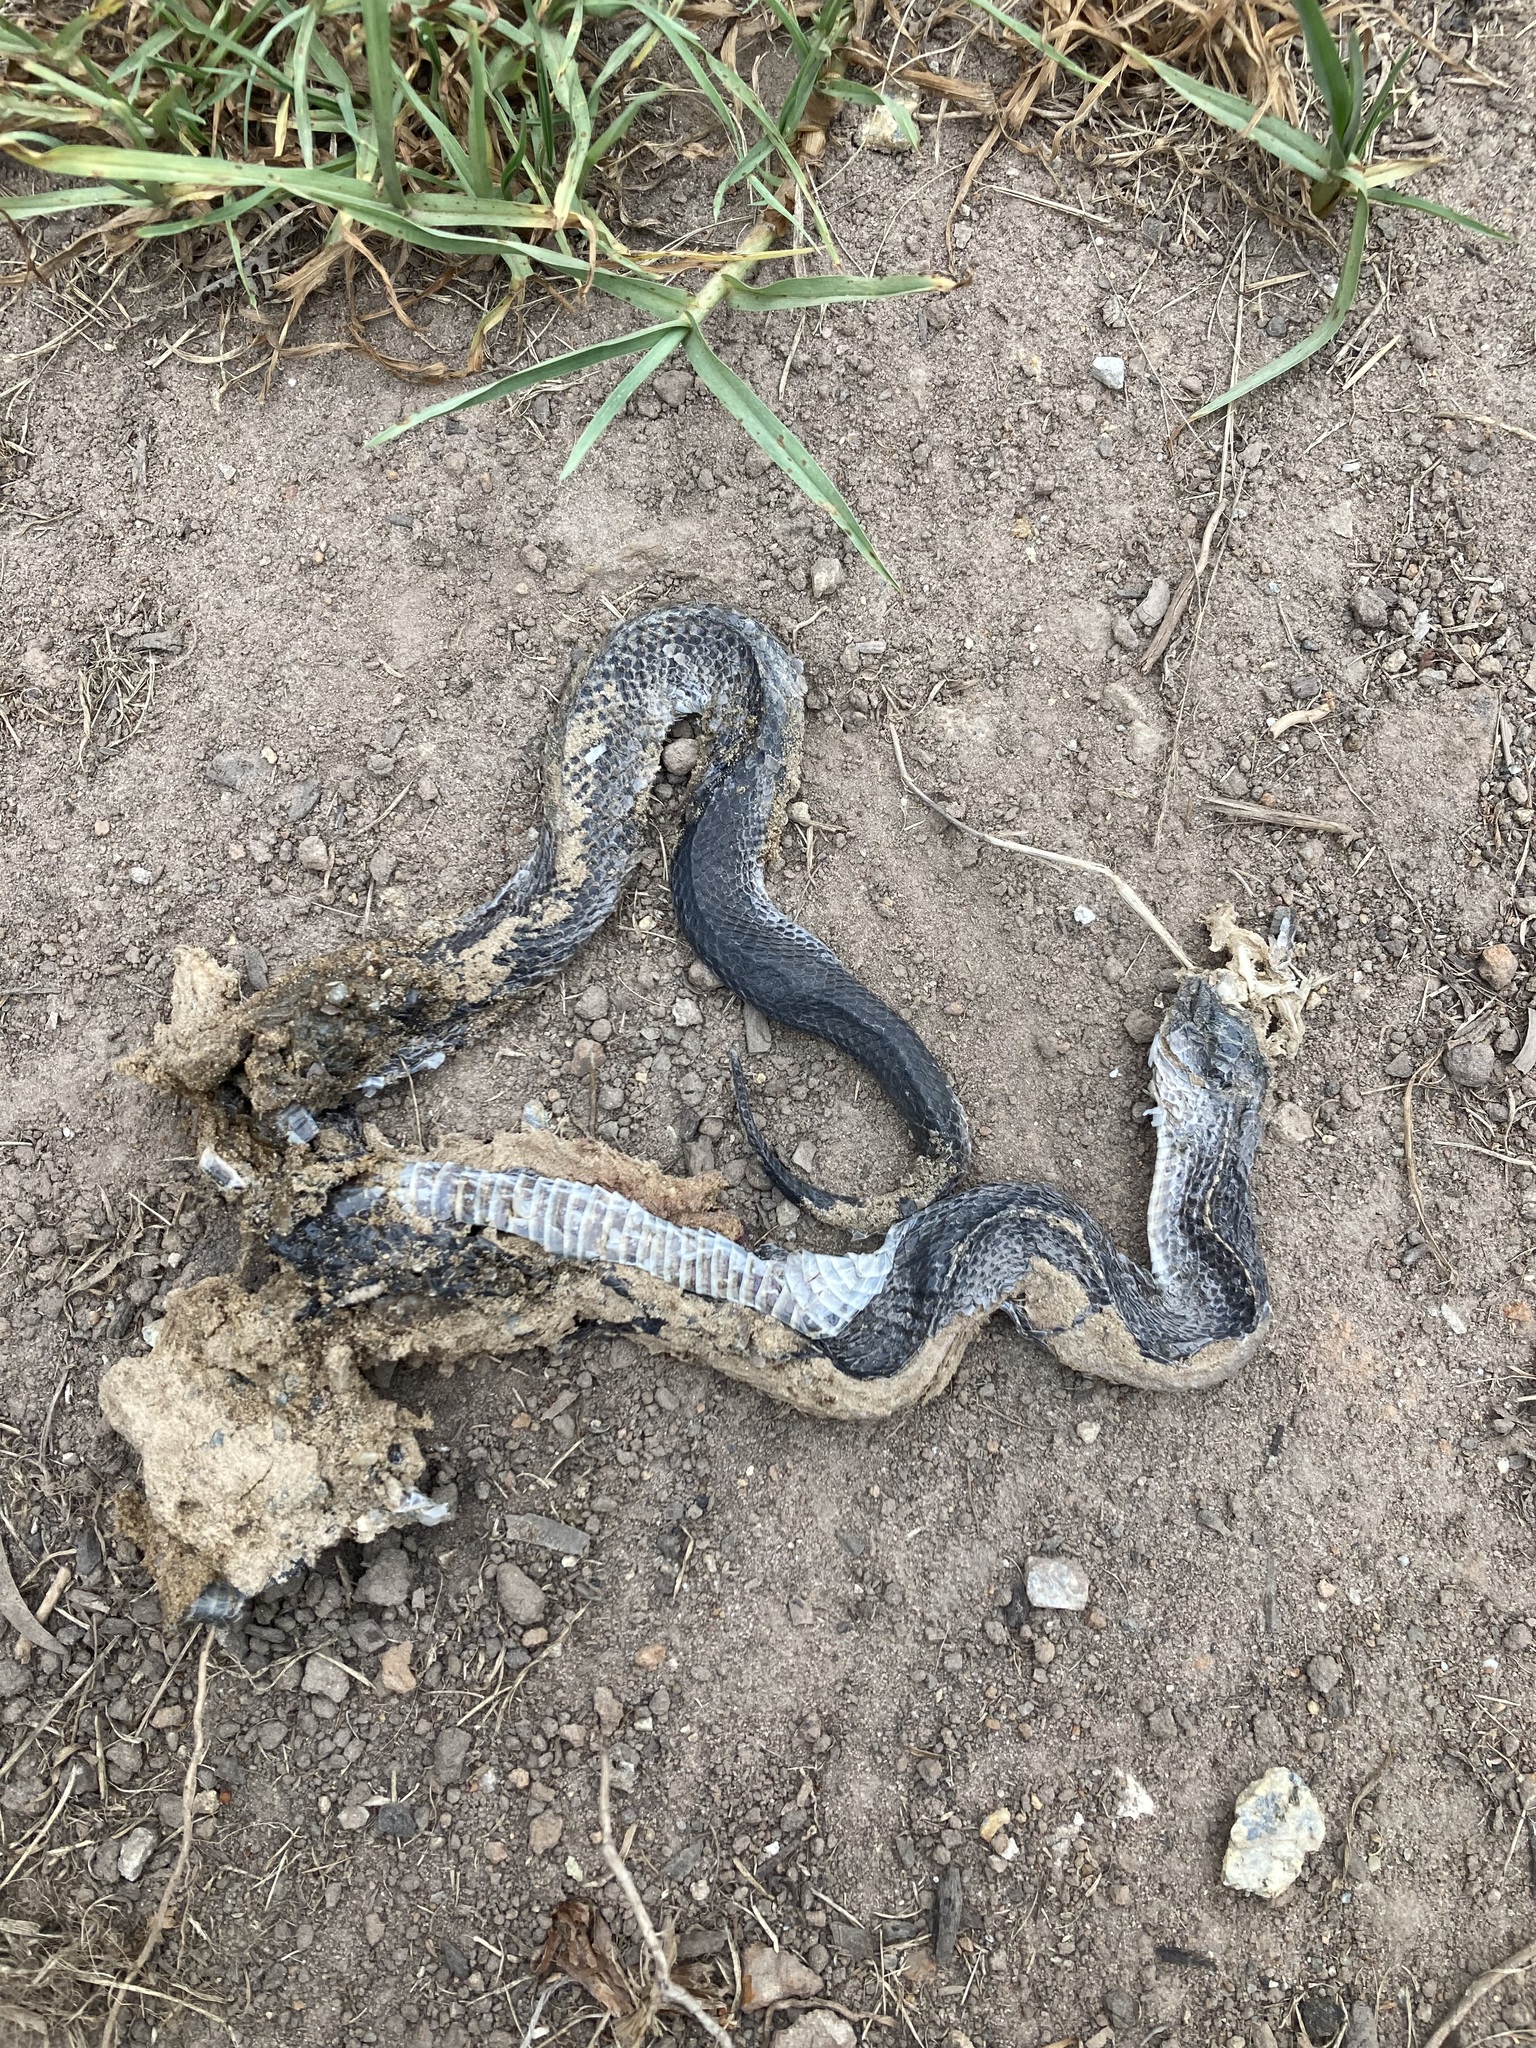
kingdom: Animalia
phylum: Chordata
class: Squamata
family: Lamprophiidae
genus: Lycophidion
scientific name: Lycophidion capense
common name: Cape wolf snake
